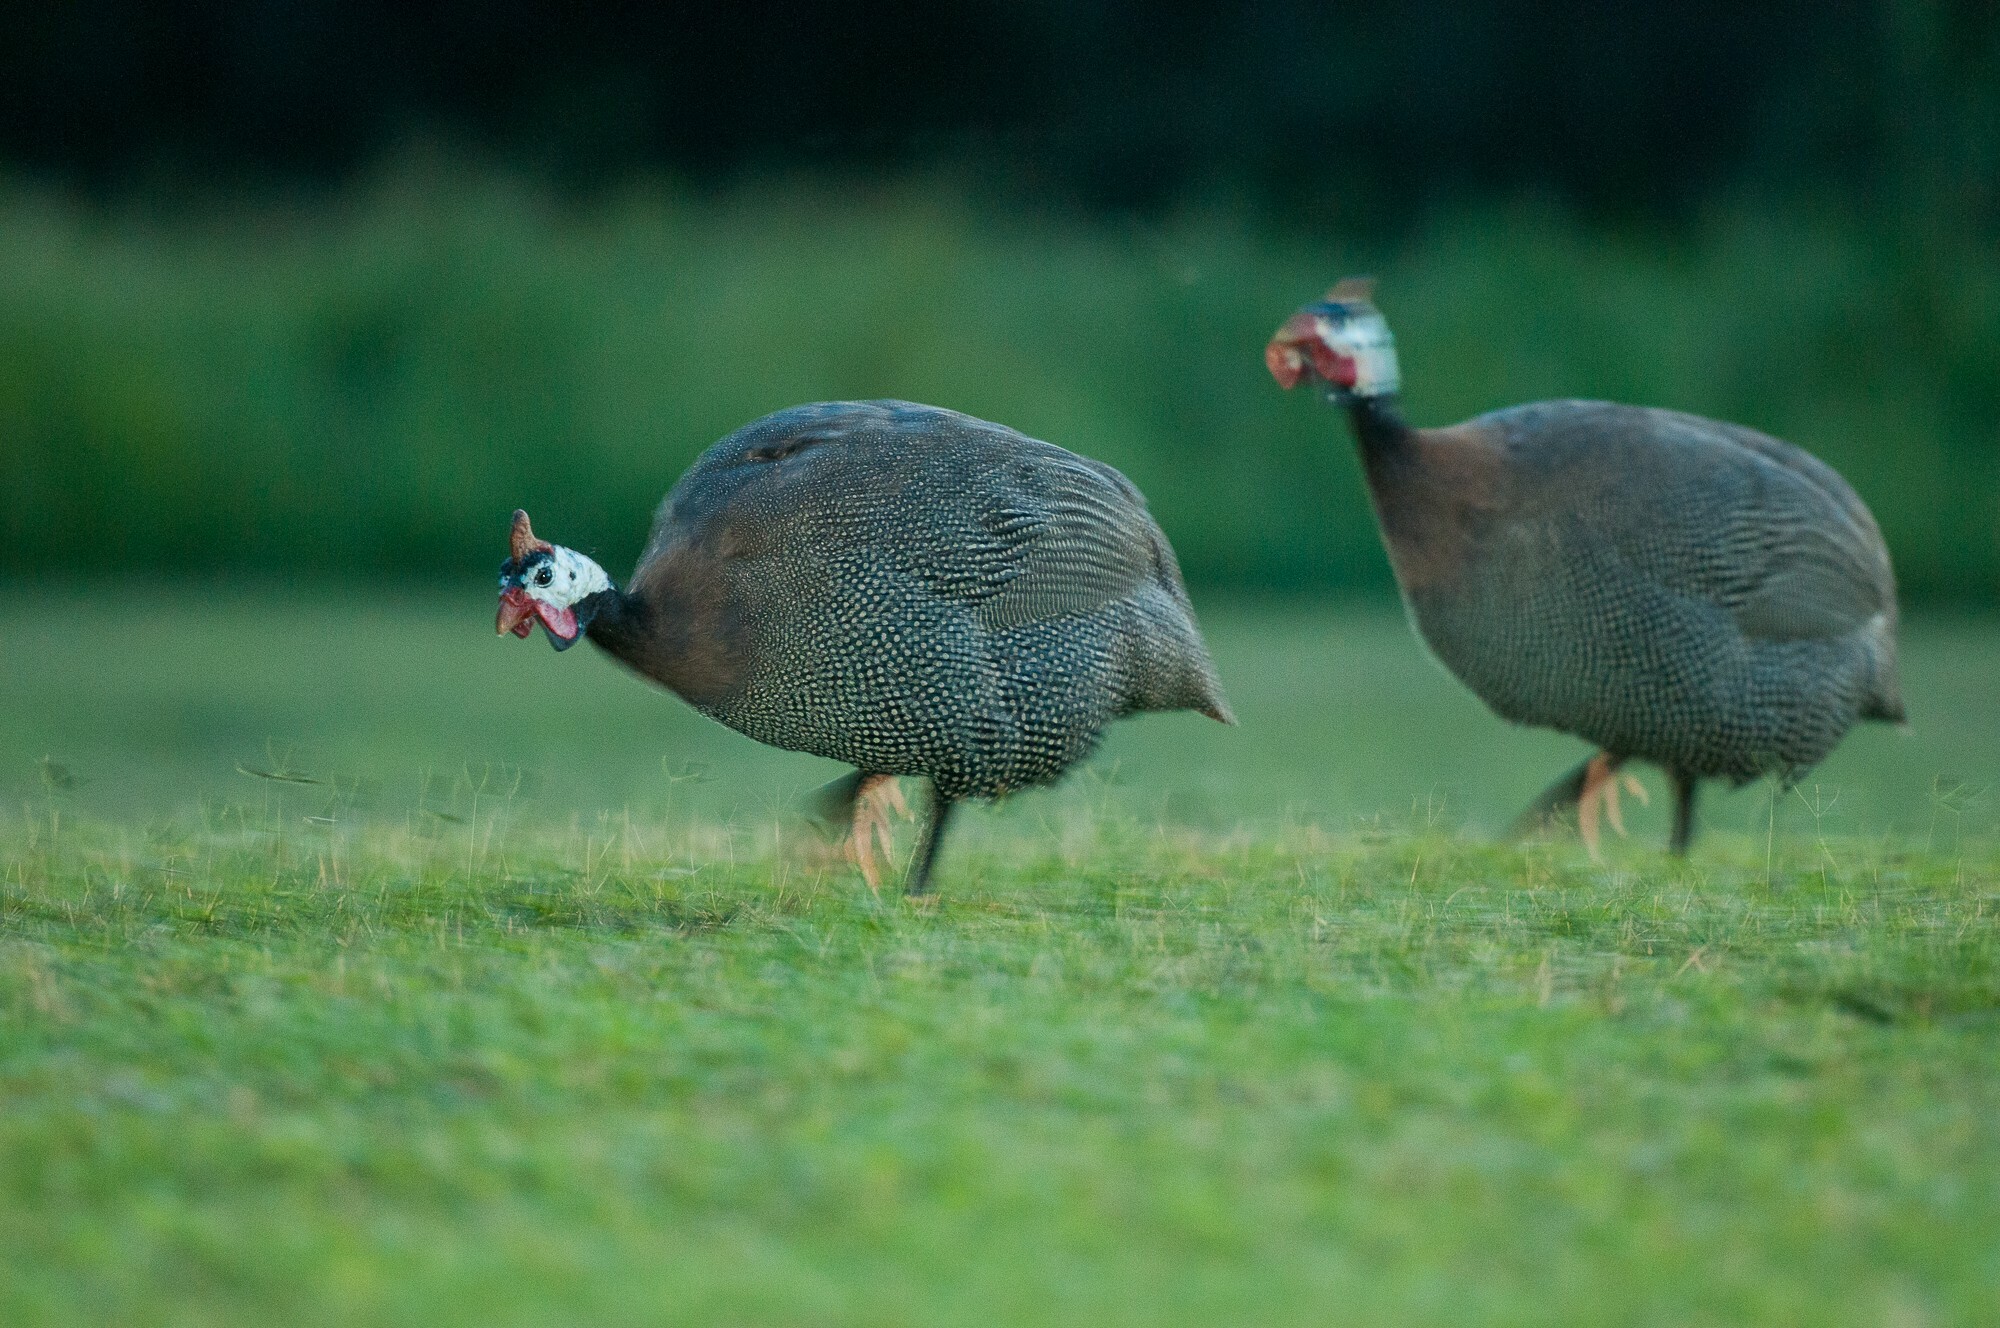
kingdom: Animalia
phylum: Chordata
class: Aves
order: Galliformes
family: Numididae
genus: Numida
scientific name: Numida meleagris
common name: Helmeted guineafowl
